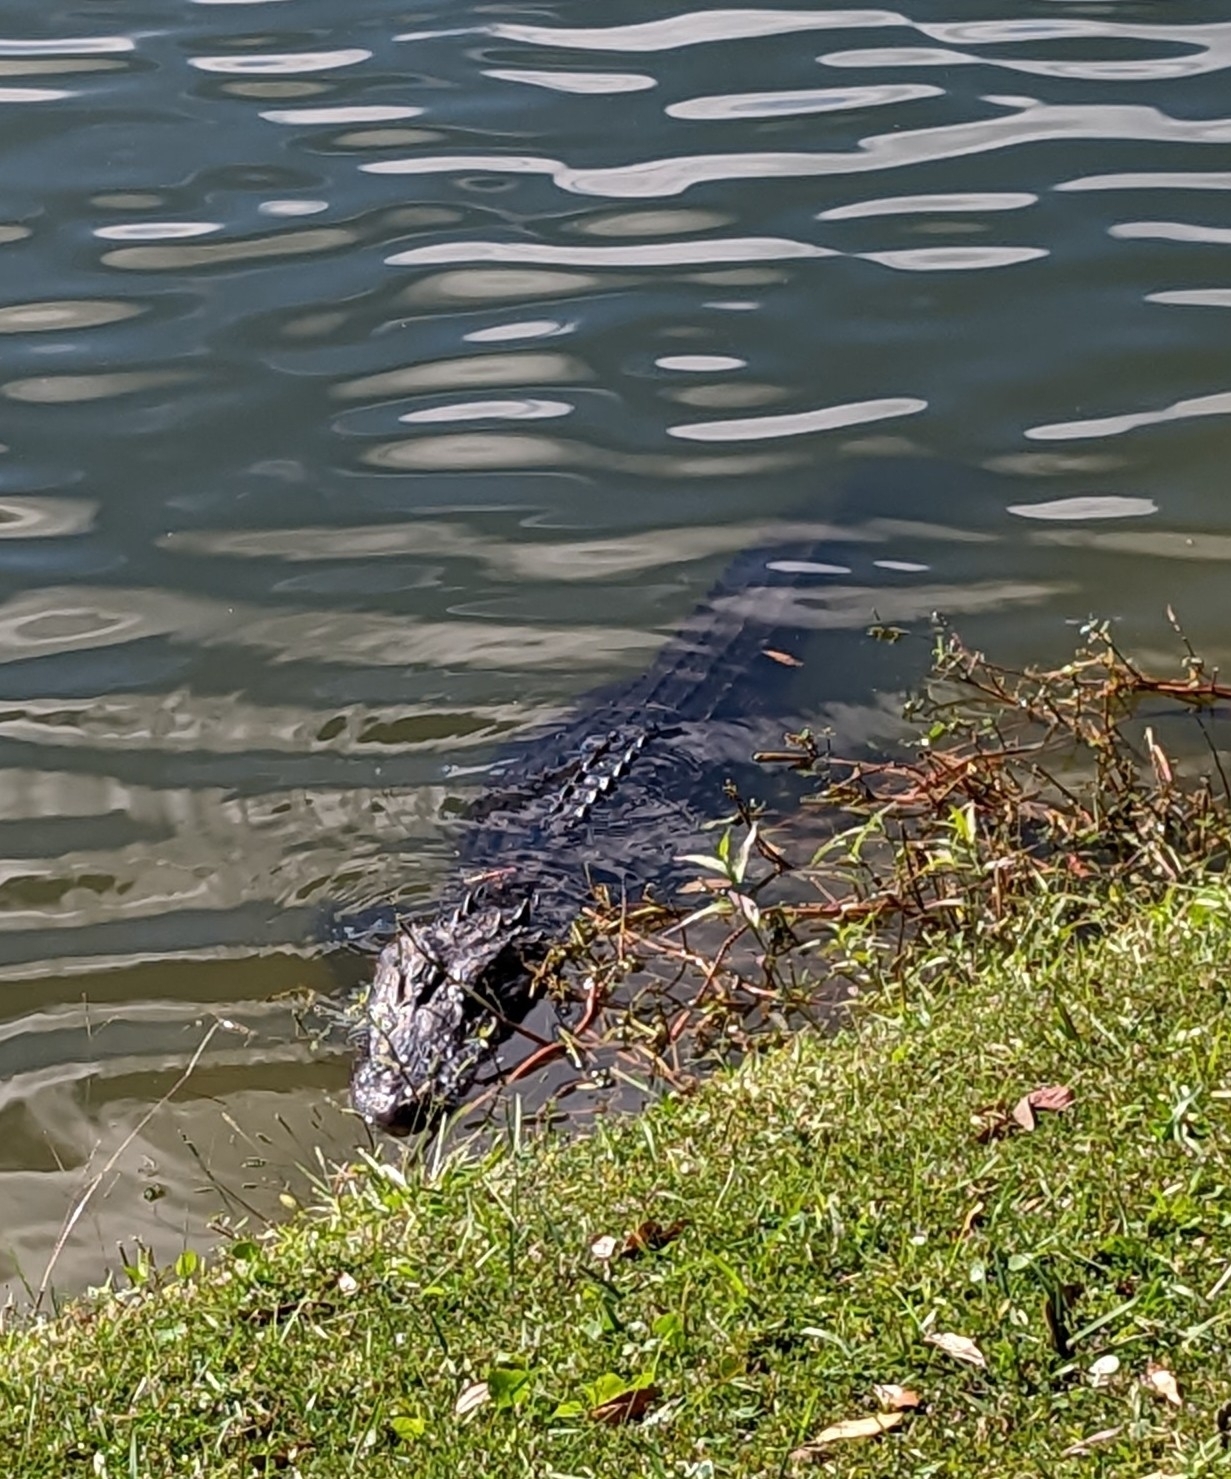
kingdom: Animalia
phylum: Chordata
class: Crocodylia
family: Alligatoridae
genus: Alligator
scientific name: Alligator mississippiensis
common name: American alligator
